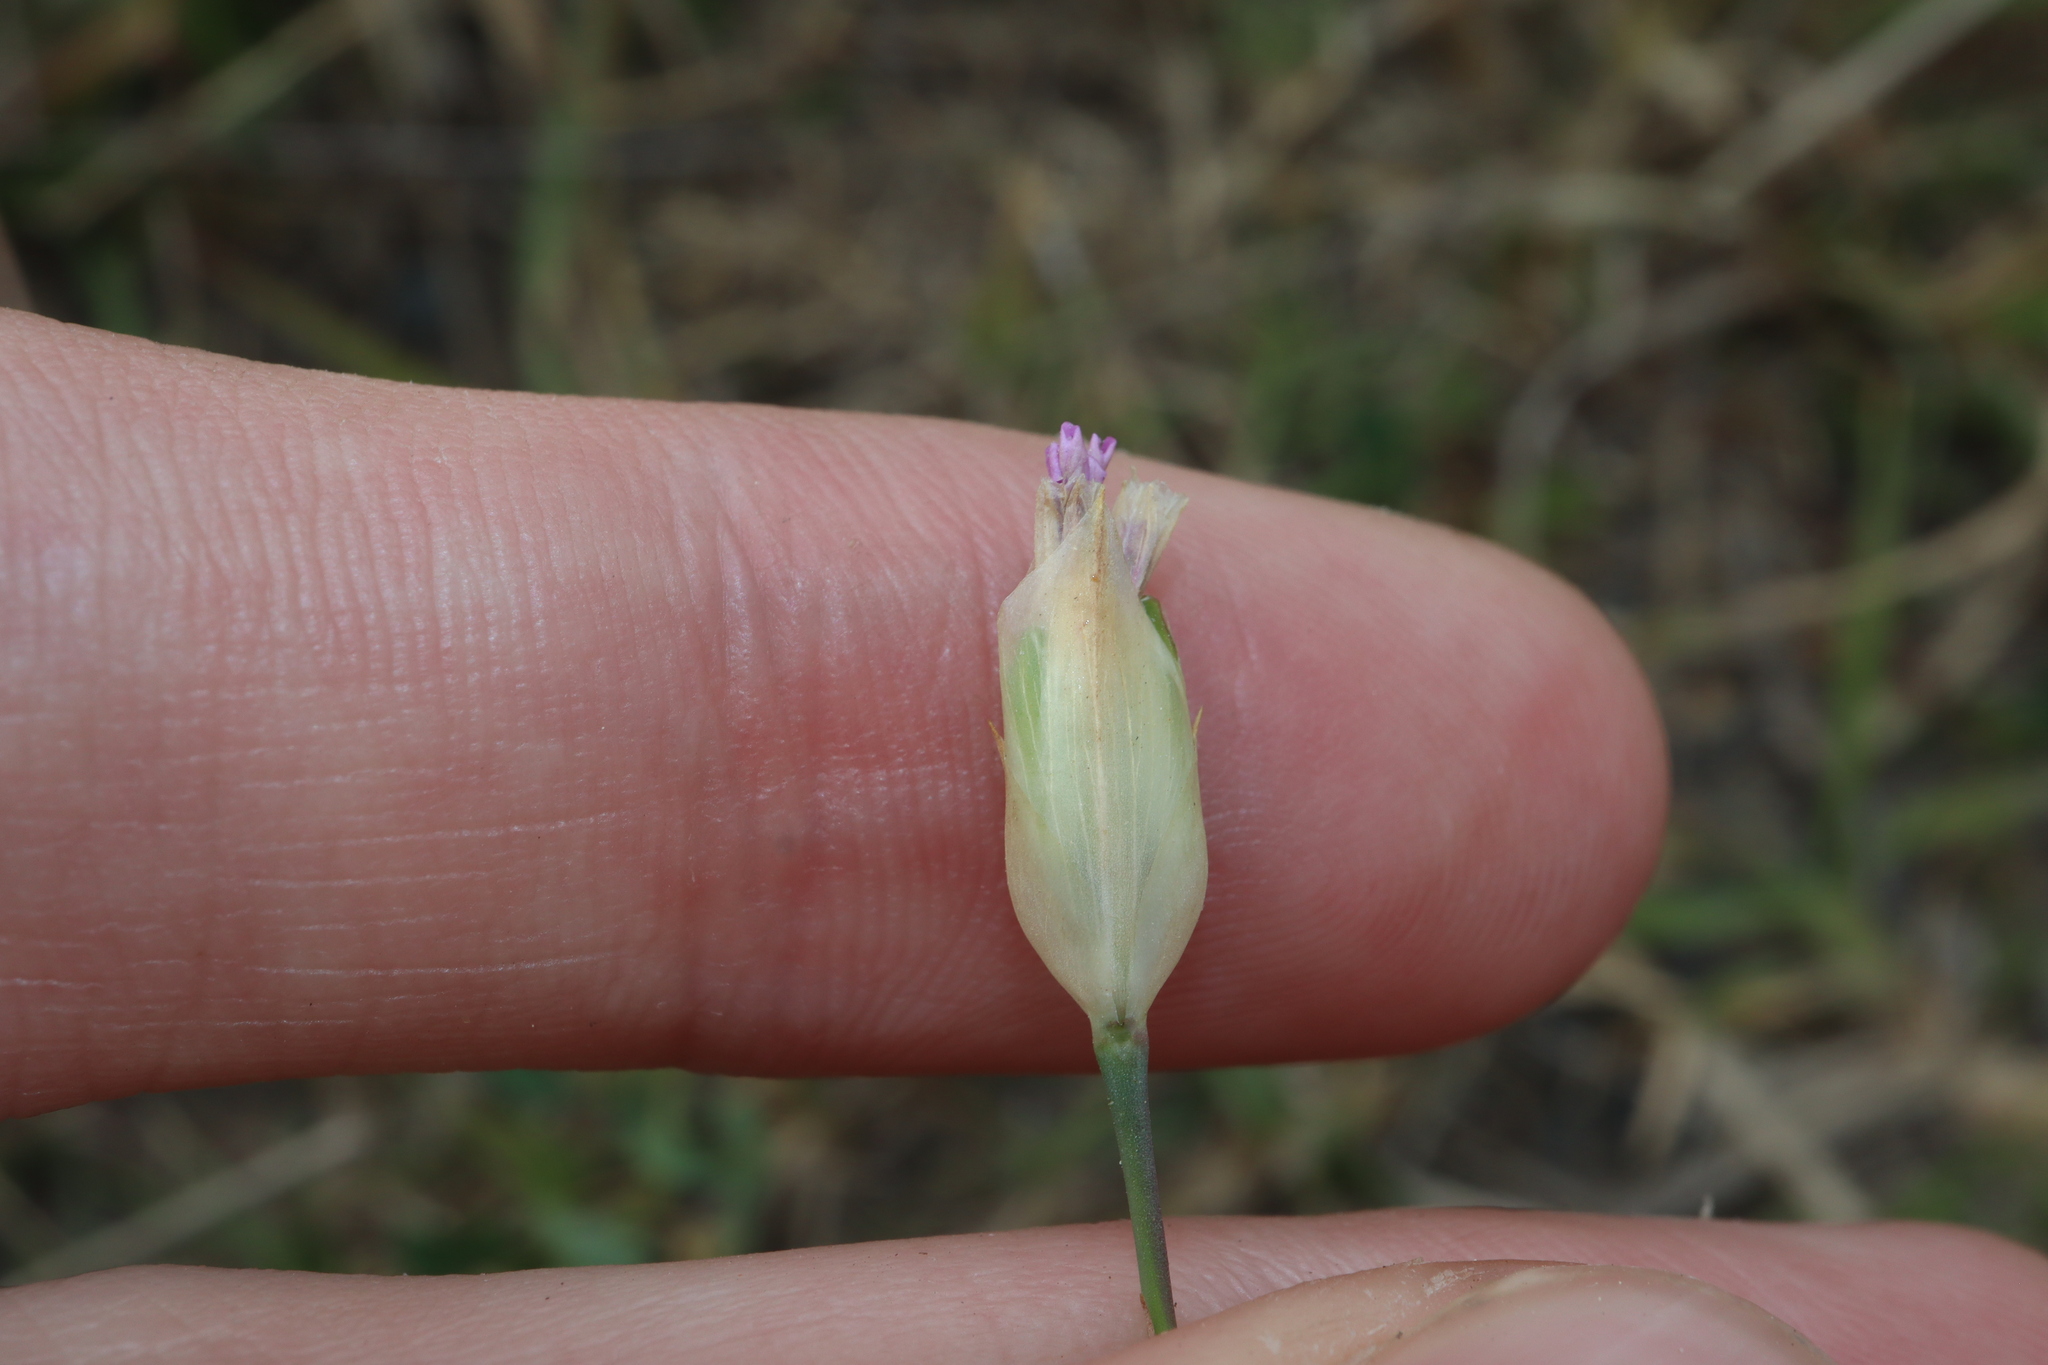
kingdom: Plantae
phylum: Tracheophyta
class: Magnoliopsida
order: Caryophyllales
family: Caryophyllaceae
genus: Petrorhagia
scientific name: Petrorhagia dubia
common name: Hairypink
